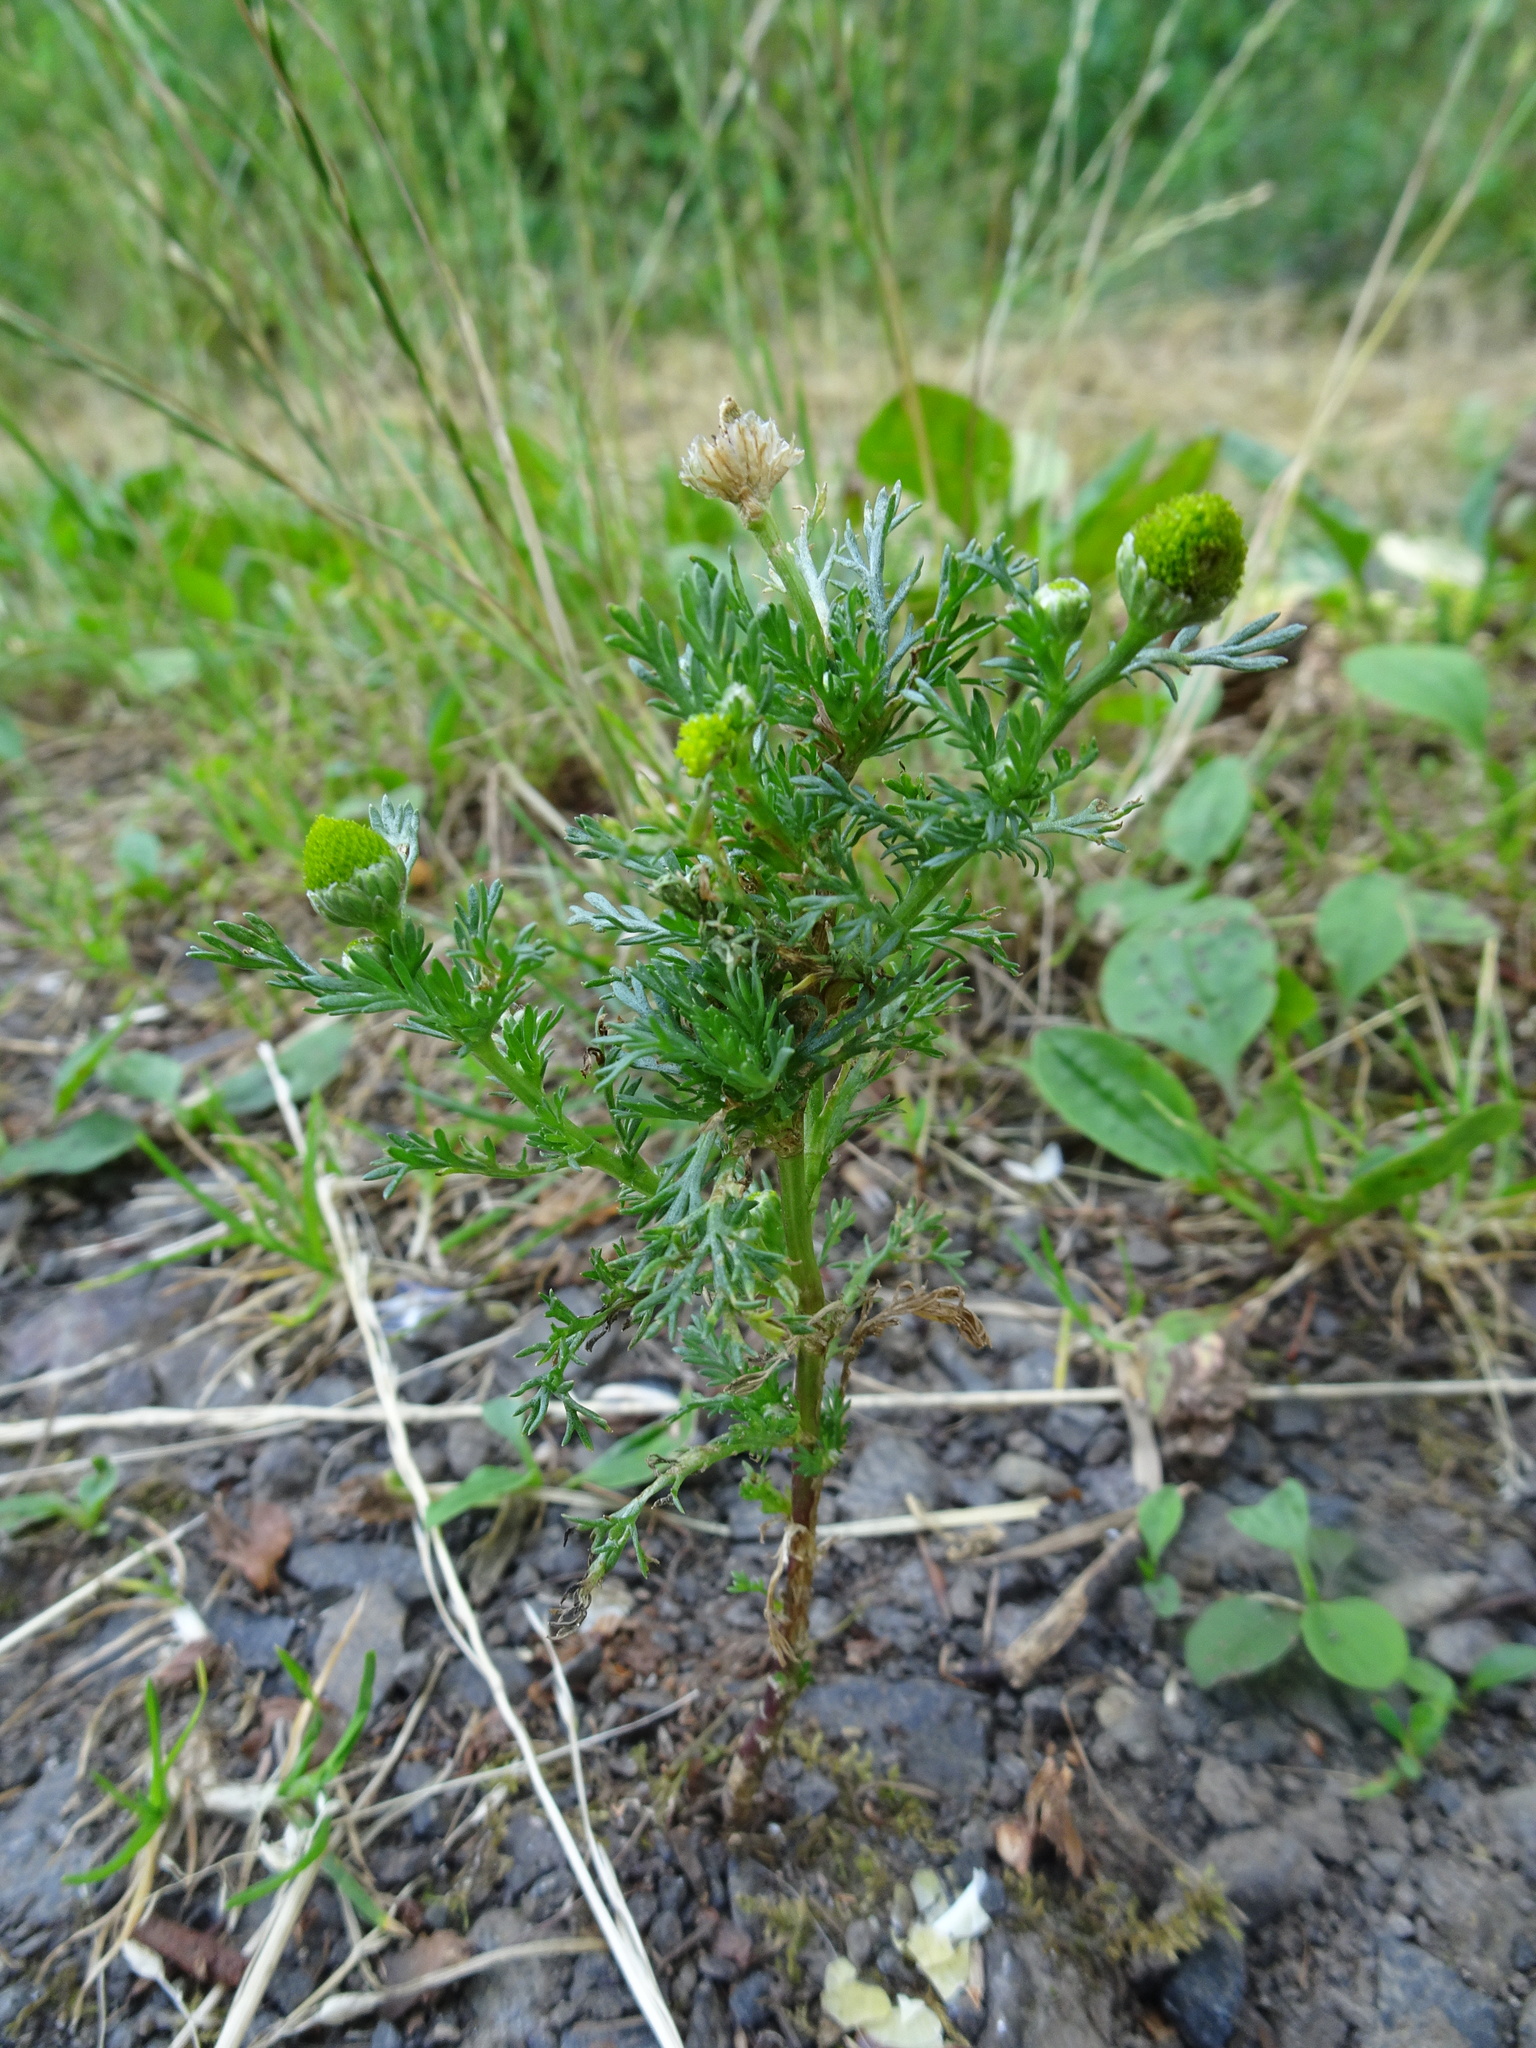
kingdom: Plantae
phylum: Tracheophyta
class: Magnoliopsida
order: Asterales
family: Asteraceae
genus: Matricaria
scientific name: Matricaria discoidea
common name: Disc mayweed
